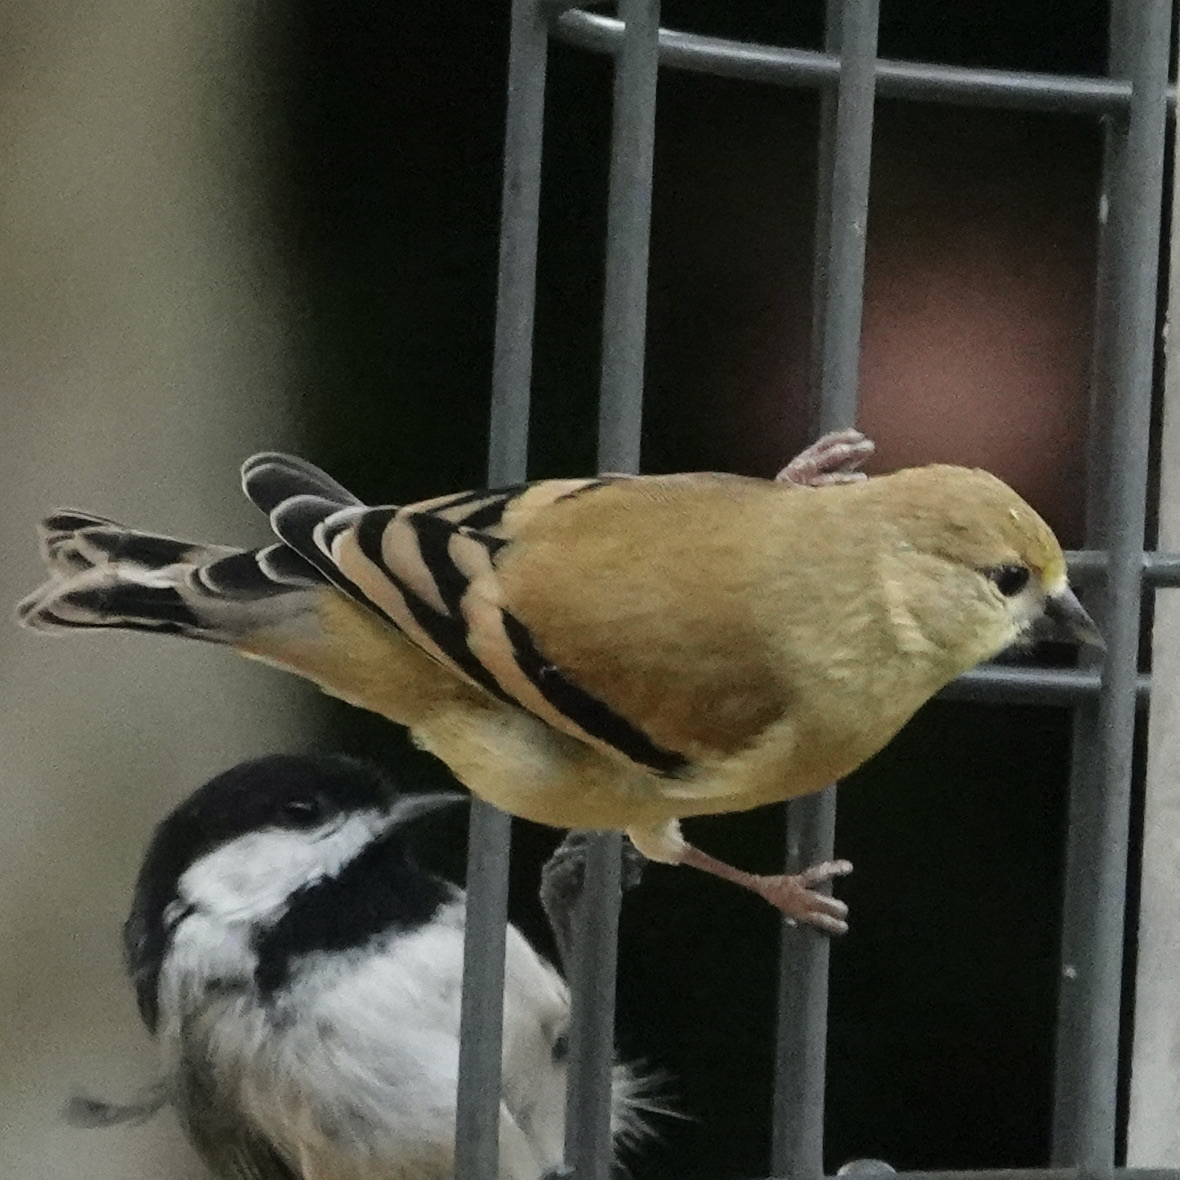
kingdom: Animalia
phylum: Chordata
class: Aves
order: Passeriformes
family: Fringillidae
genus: Spinus
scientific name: Spinus tristis
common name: American goldfinch
